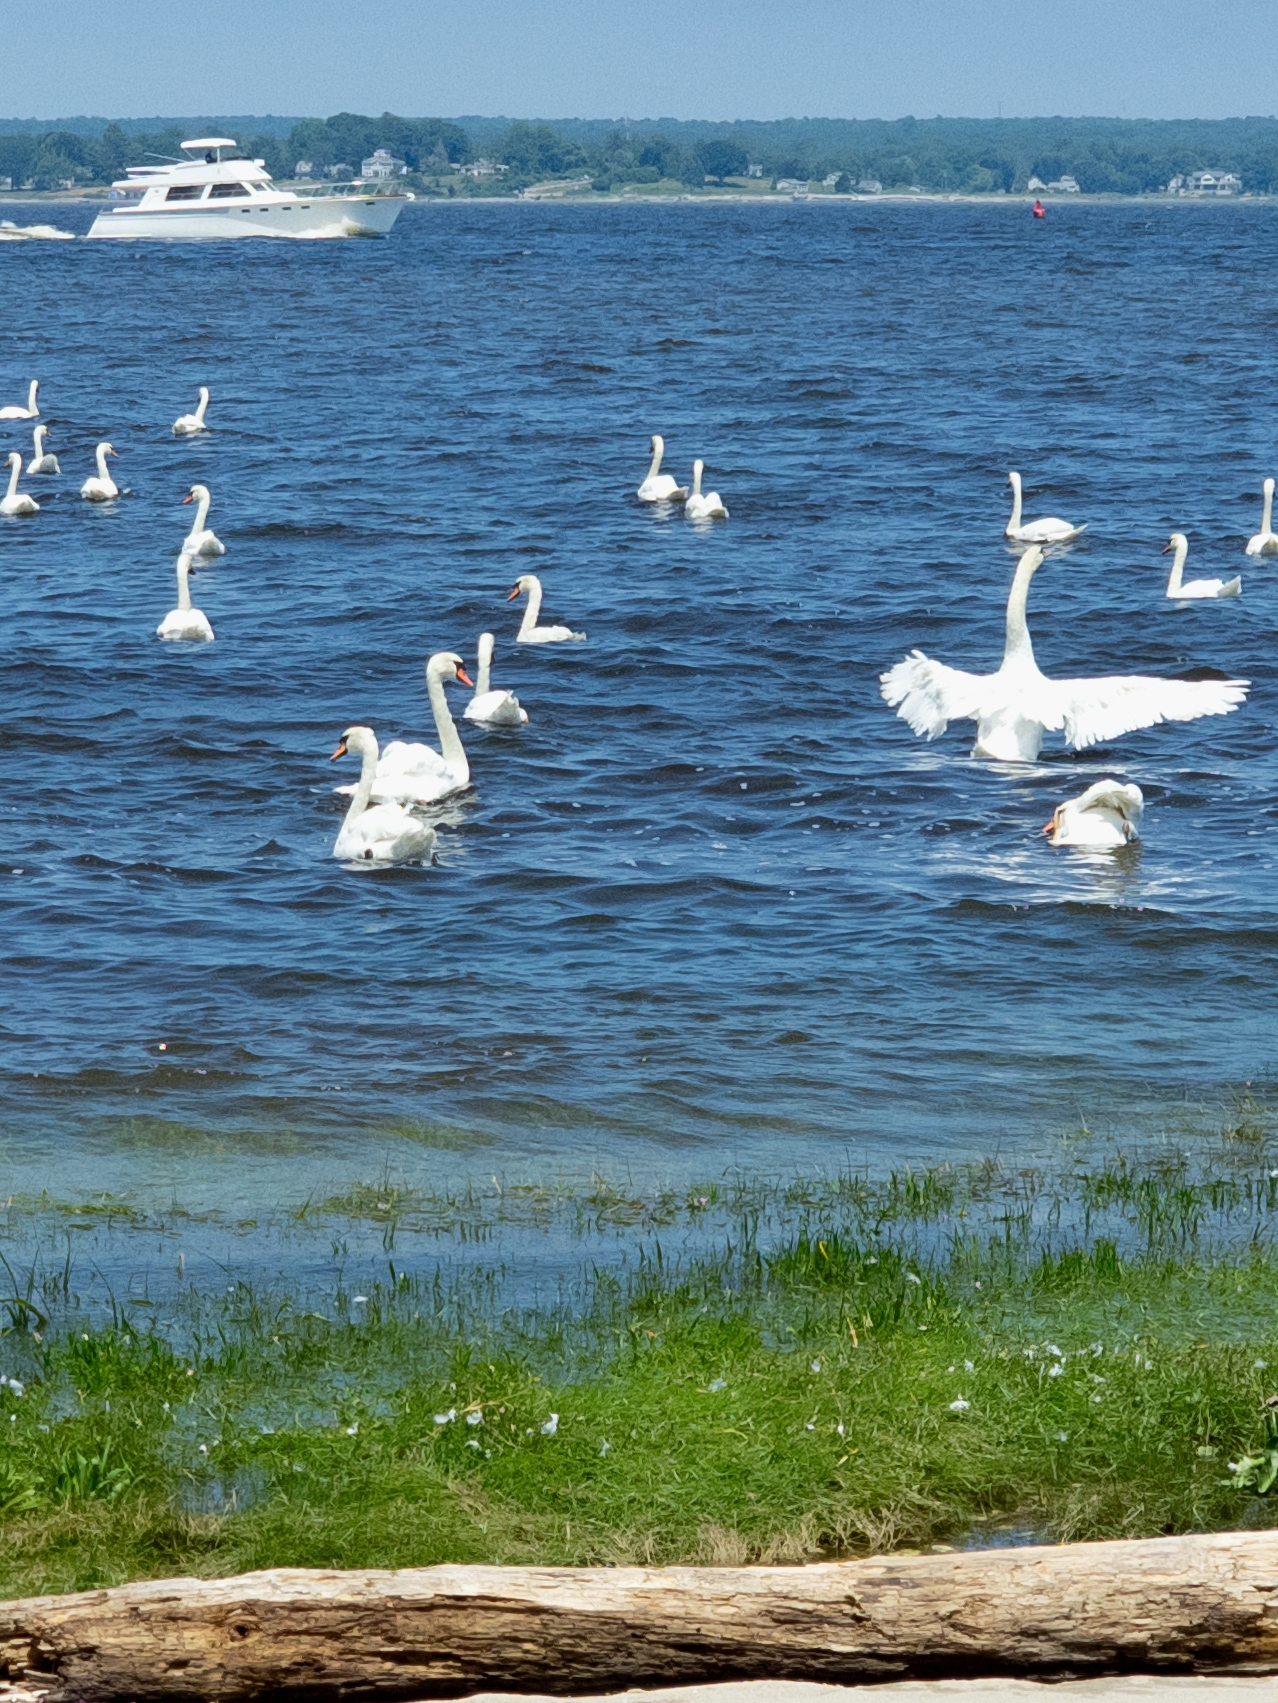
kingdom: Animalia
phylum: Chordata
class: Aves
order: Anseriformes
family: Anatidae
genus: Cygnus
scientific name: Cygnus olor
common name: Mute swan
